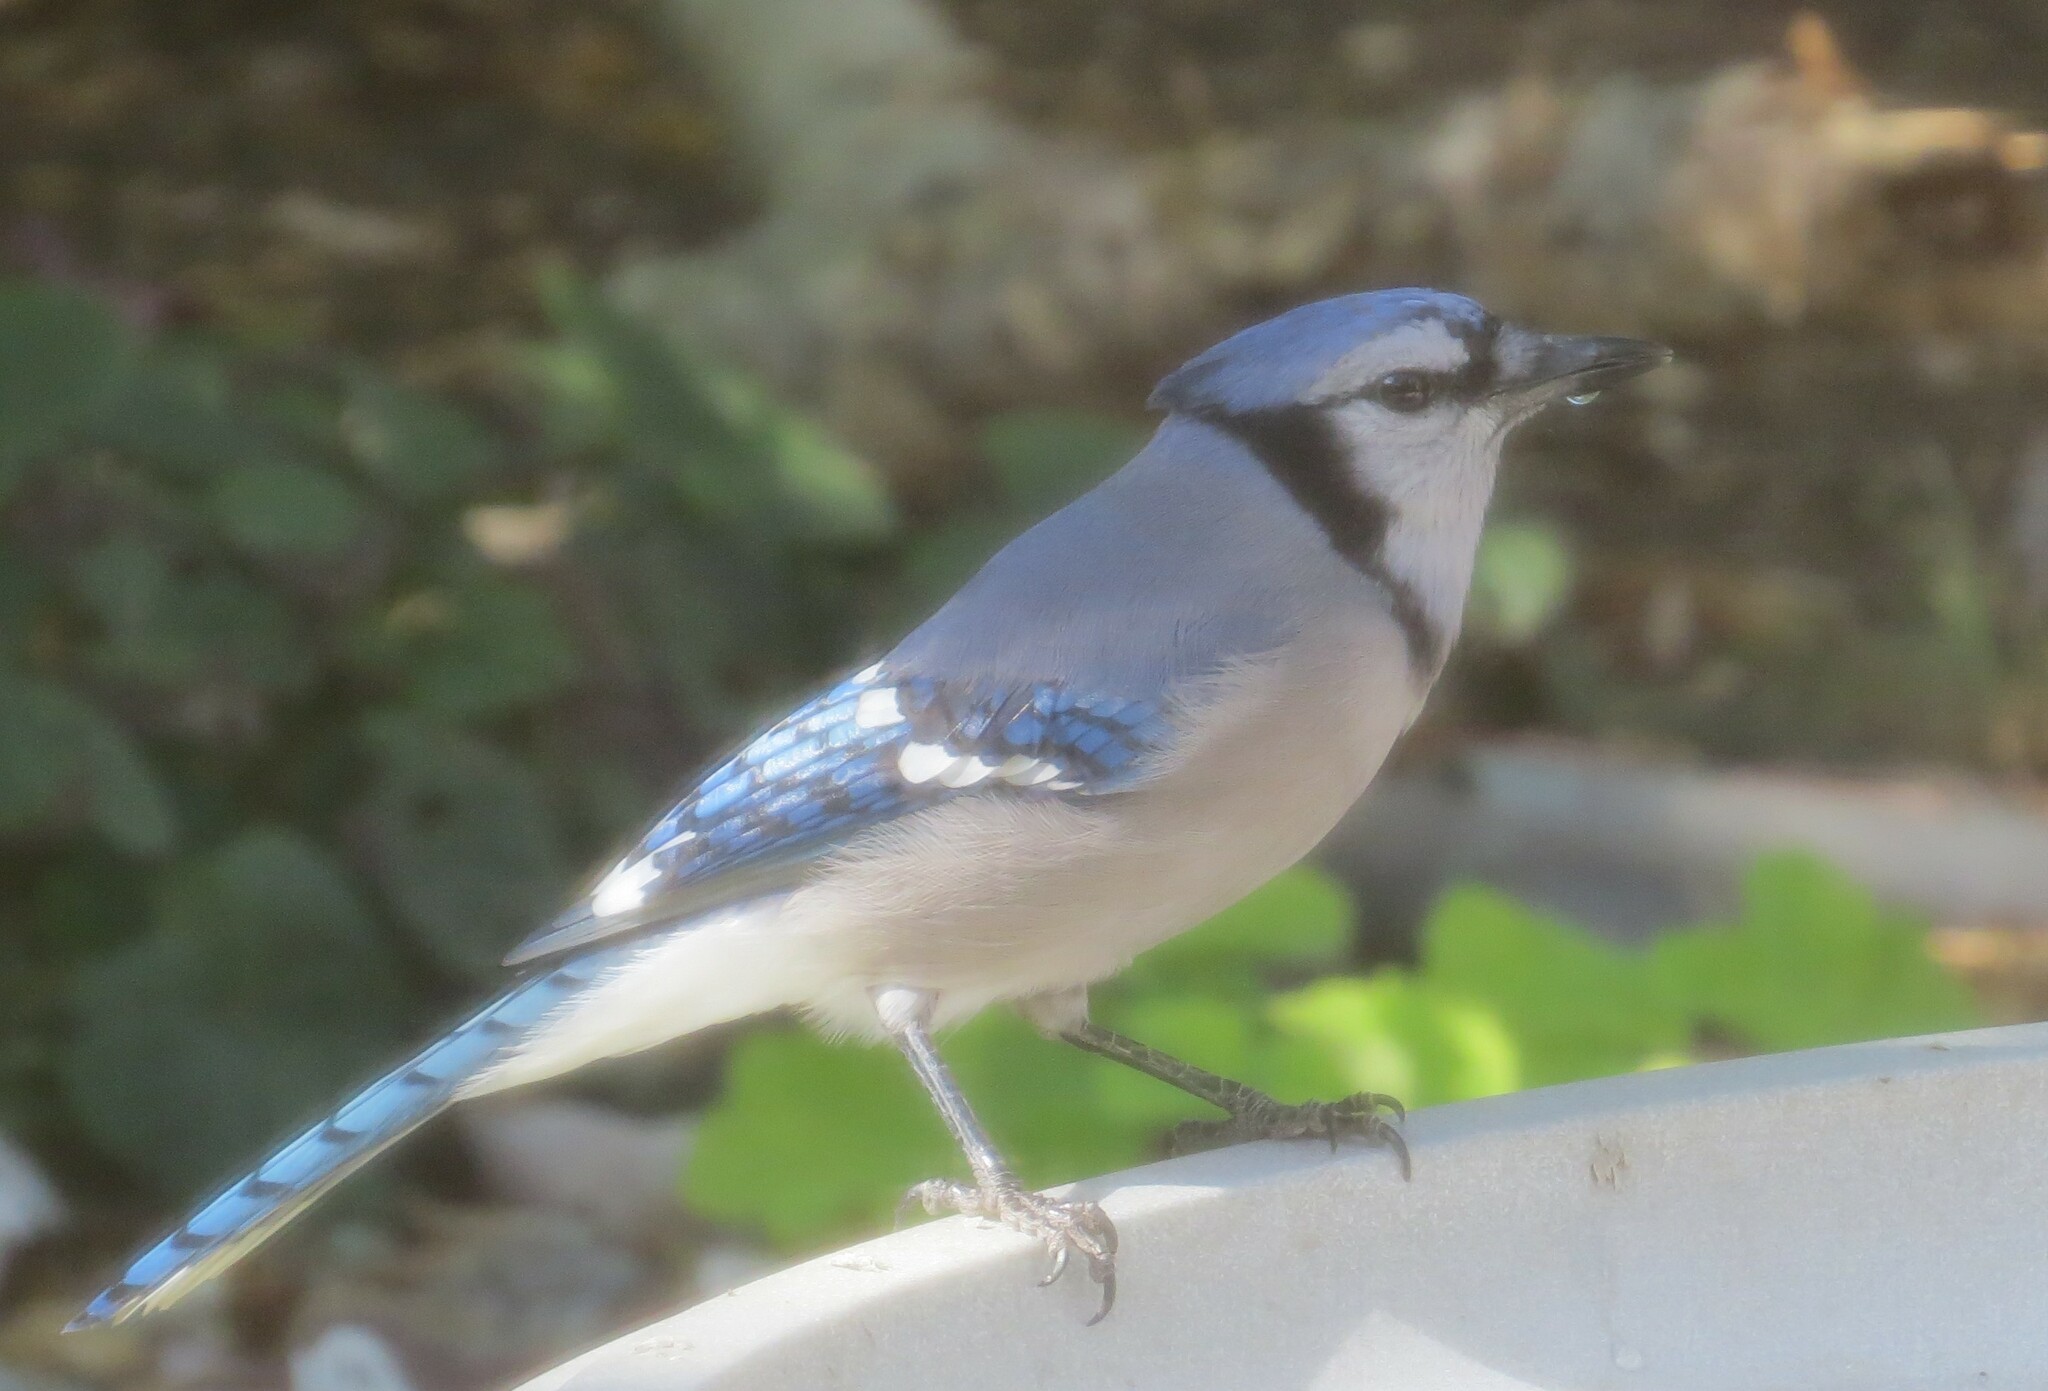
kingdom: Animalia
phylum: Chordata
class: Aves
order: Passeriformes
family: Corvidae
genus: Cyanocitta
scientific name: Cyanocitta cristata
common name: Blue jay
